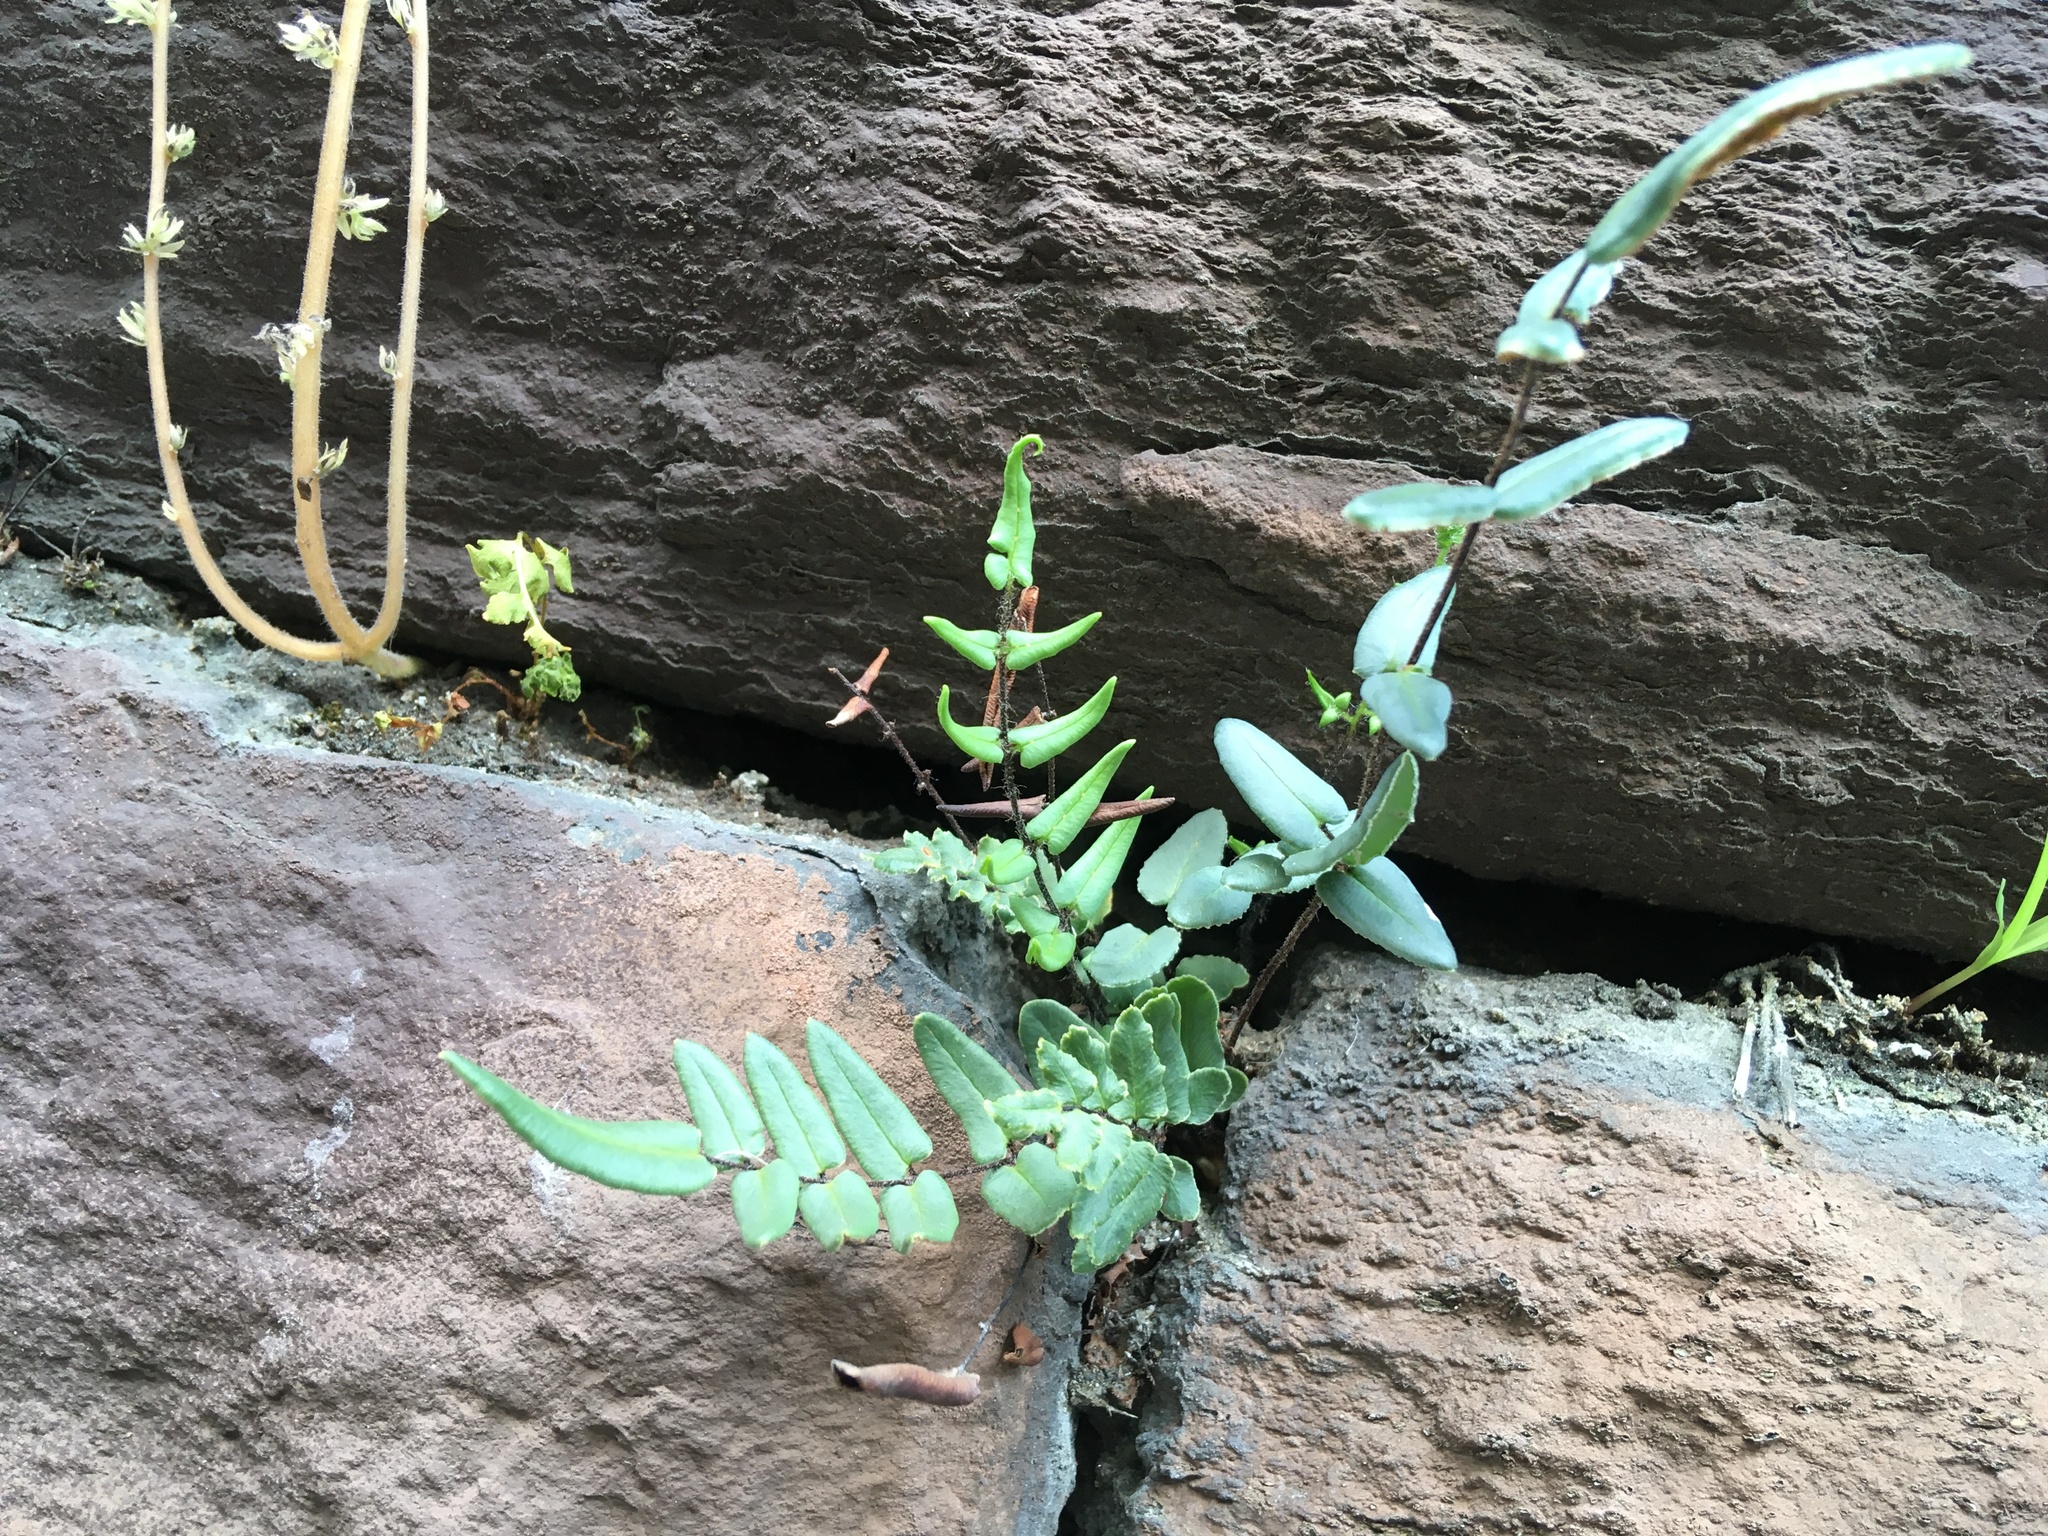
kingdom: Plantae
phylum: Tracheophyta
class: Polypodiopsida
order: Polypodiales
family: Pteridaceae
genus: Pellaea
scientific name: Pellaea atropurpurea
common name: Hairy cliffbrake
